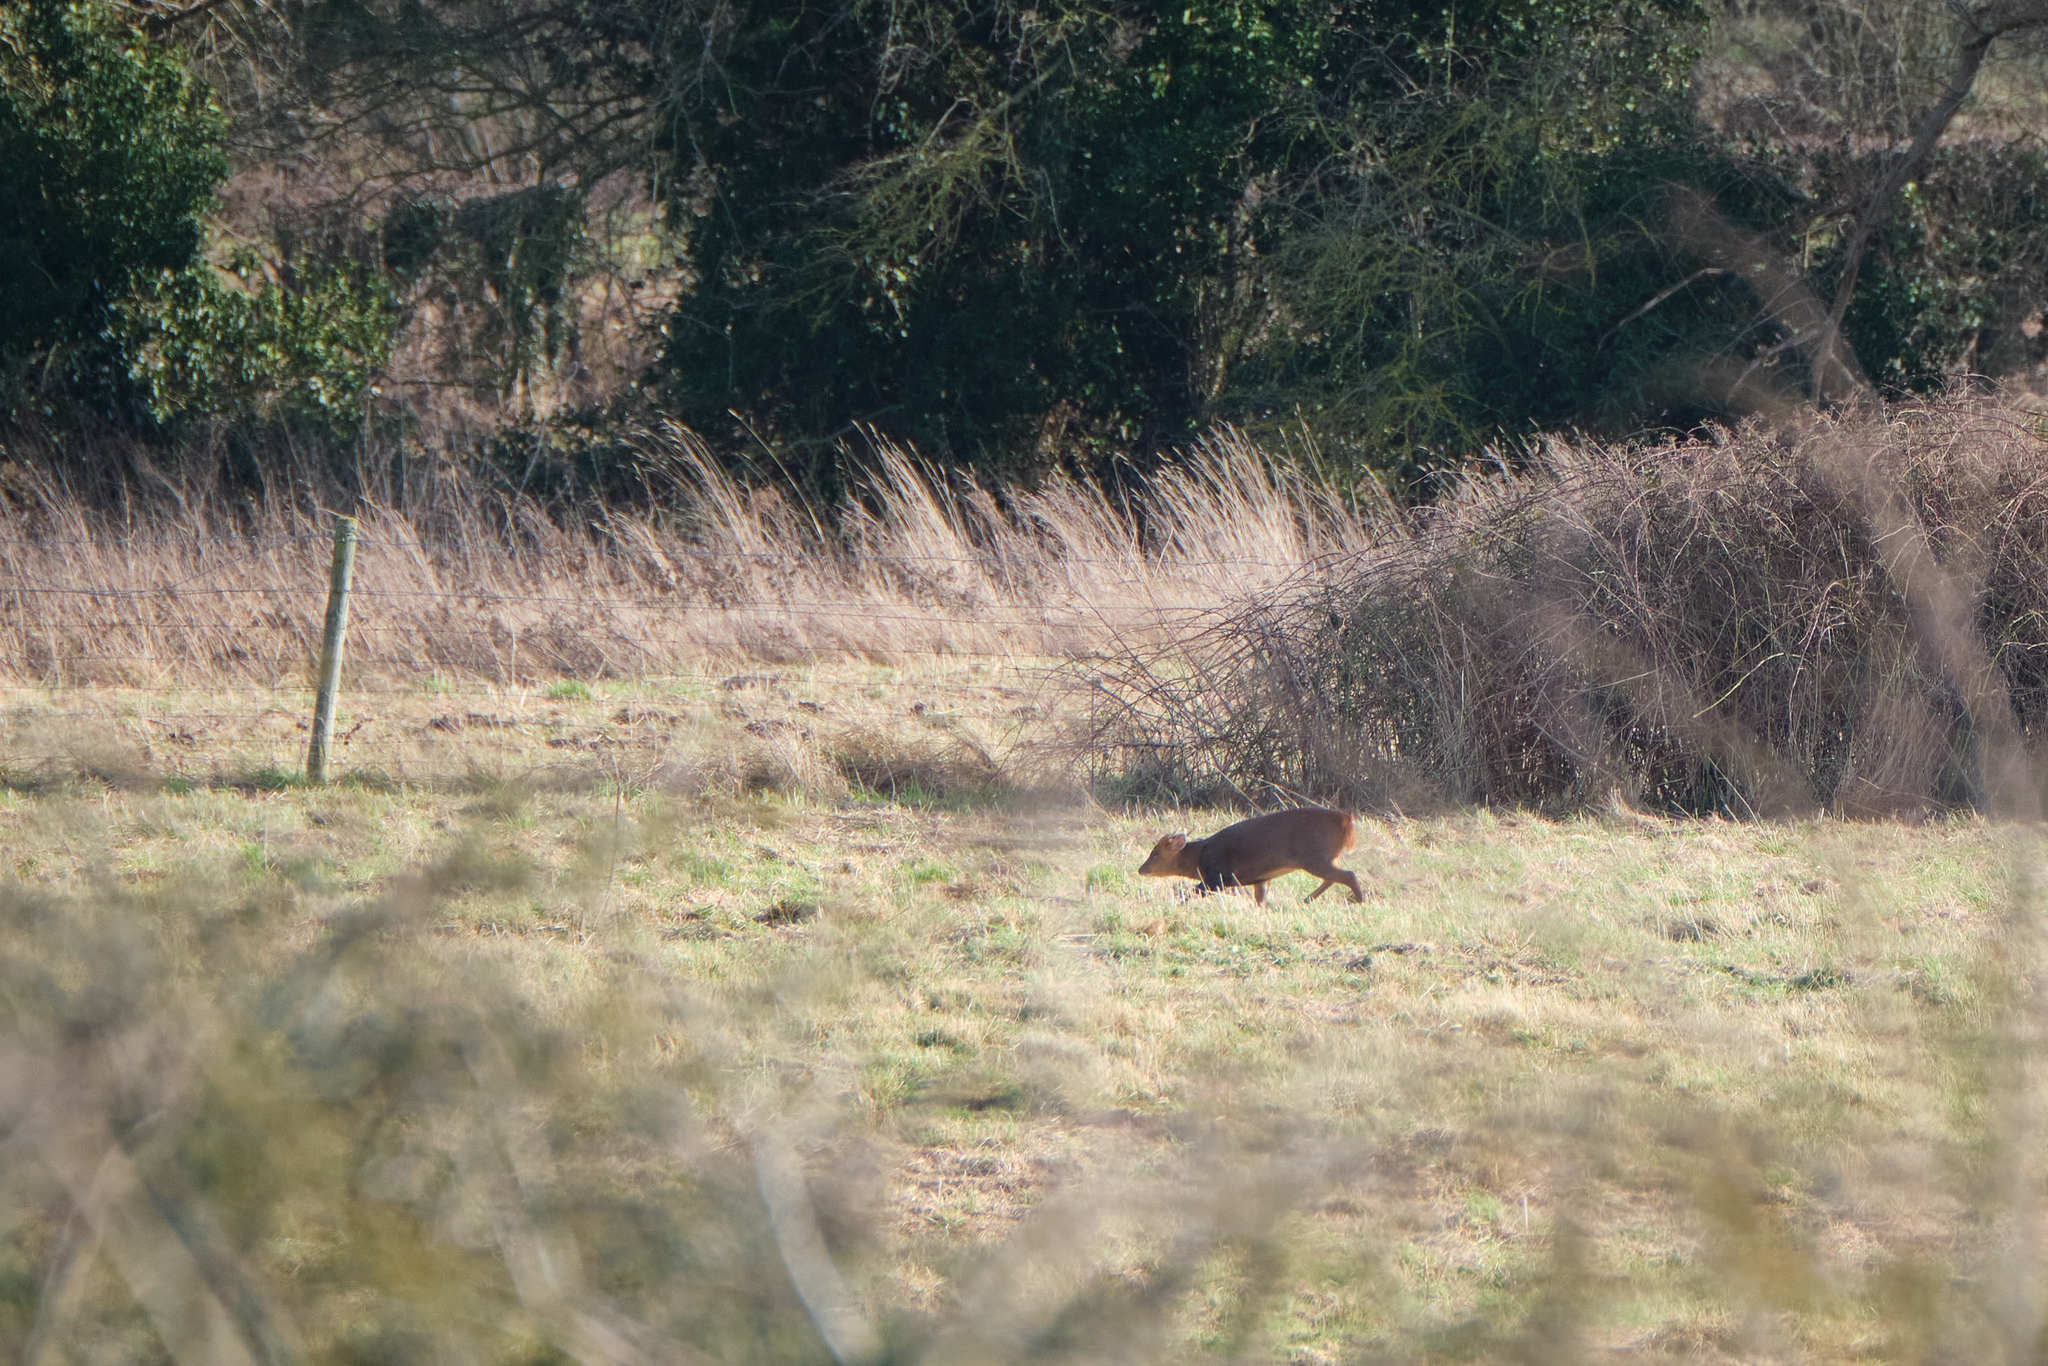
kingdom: Animalia
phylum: Chordata
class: Mammalia
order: Artiodactyla
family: Cervidae
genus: Muntiacus
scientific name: Muntiacus reevesi
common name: Reeves' muntjac
